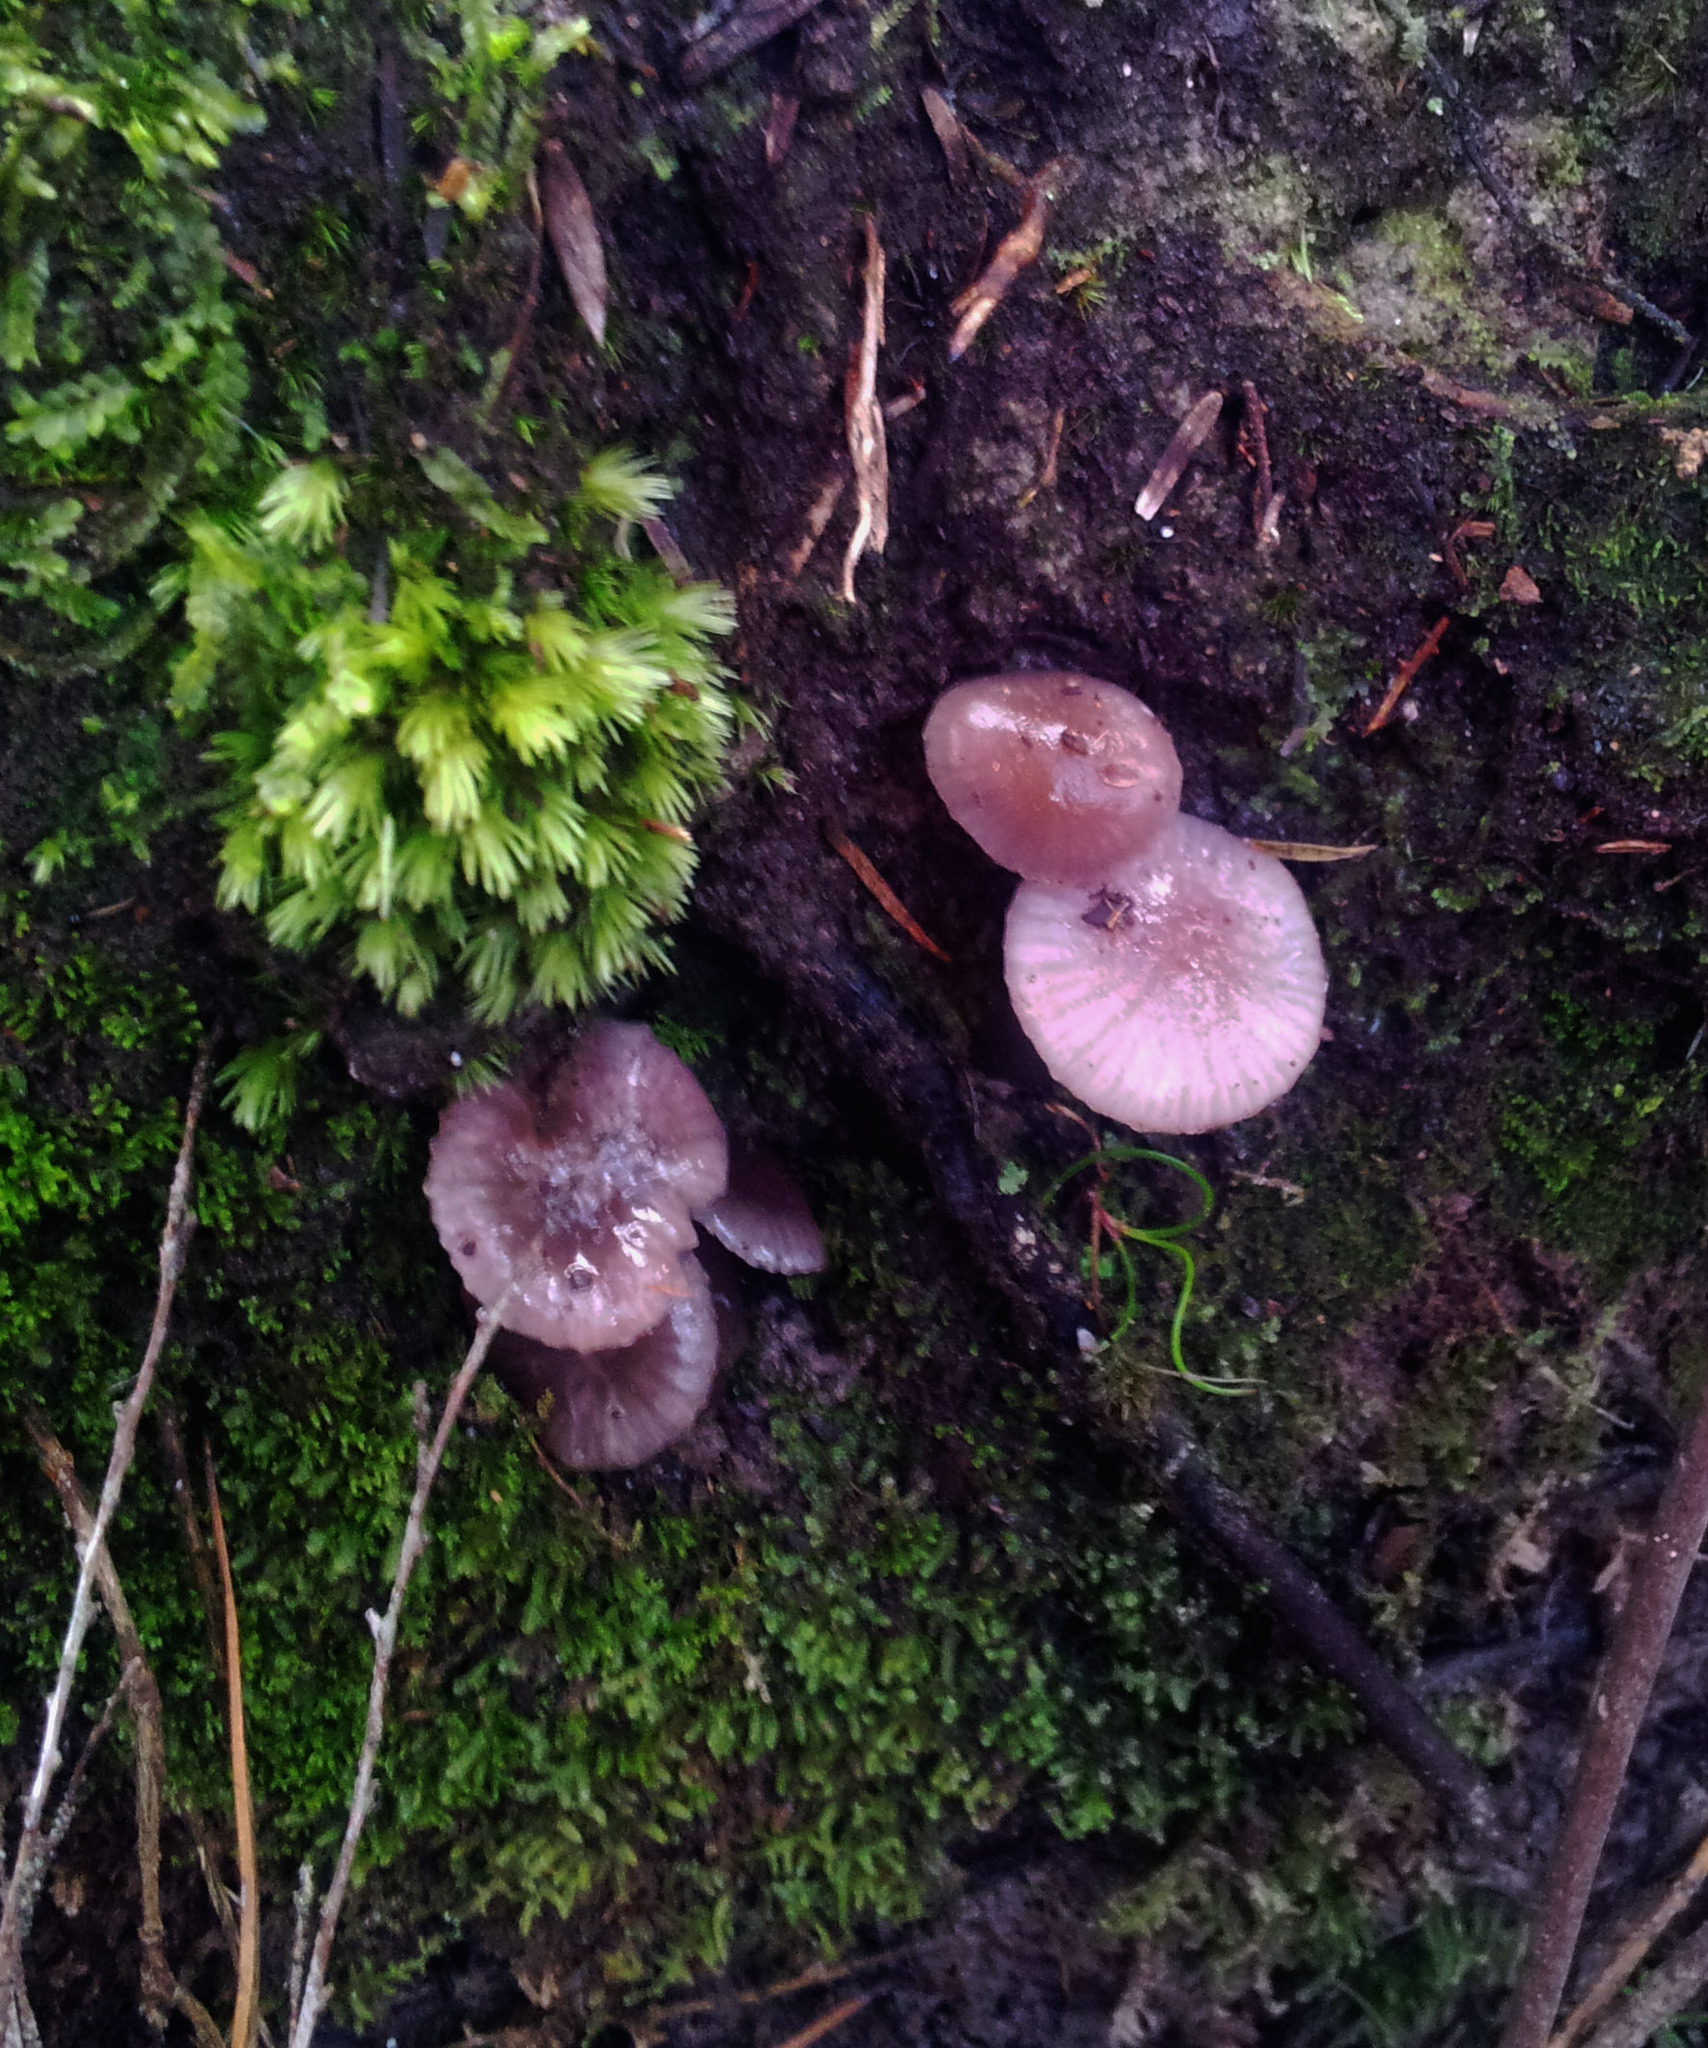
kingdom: Fungi
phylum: Basidiomycota
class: Agaricomycetes
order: Agaricales
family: Hygrophoraceae
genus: Gliophorus
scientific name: Gliophorus lilacipes
